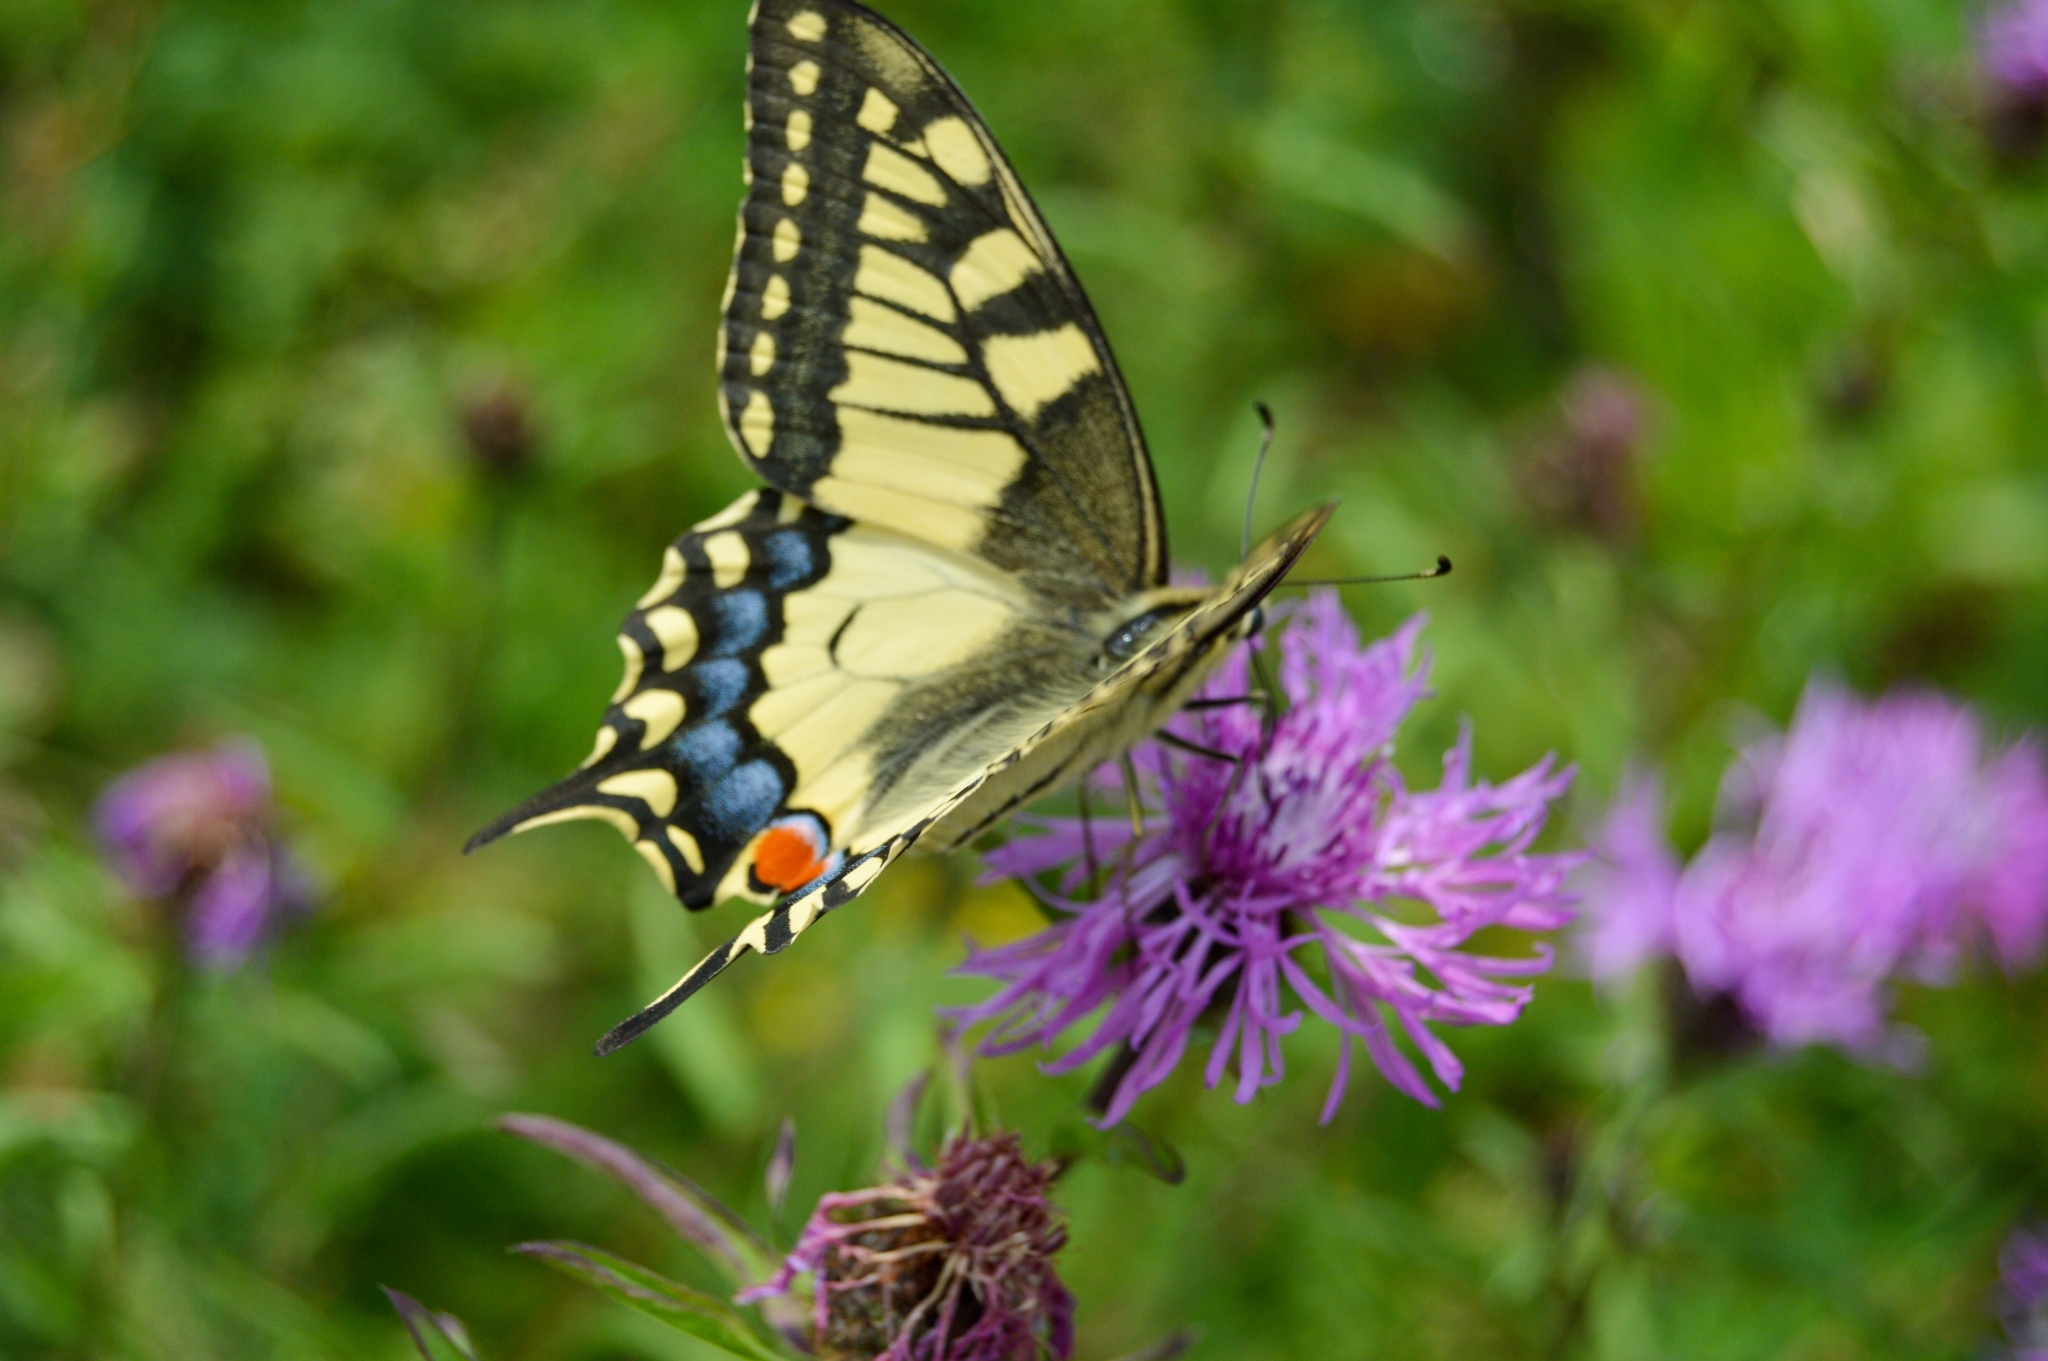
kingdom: Animalia
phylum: Arthropoda
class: Insecta
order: Lepidoptera
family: Papilionidae
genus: Papilio
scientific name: Papilio machaon
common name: Swallowtail
